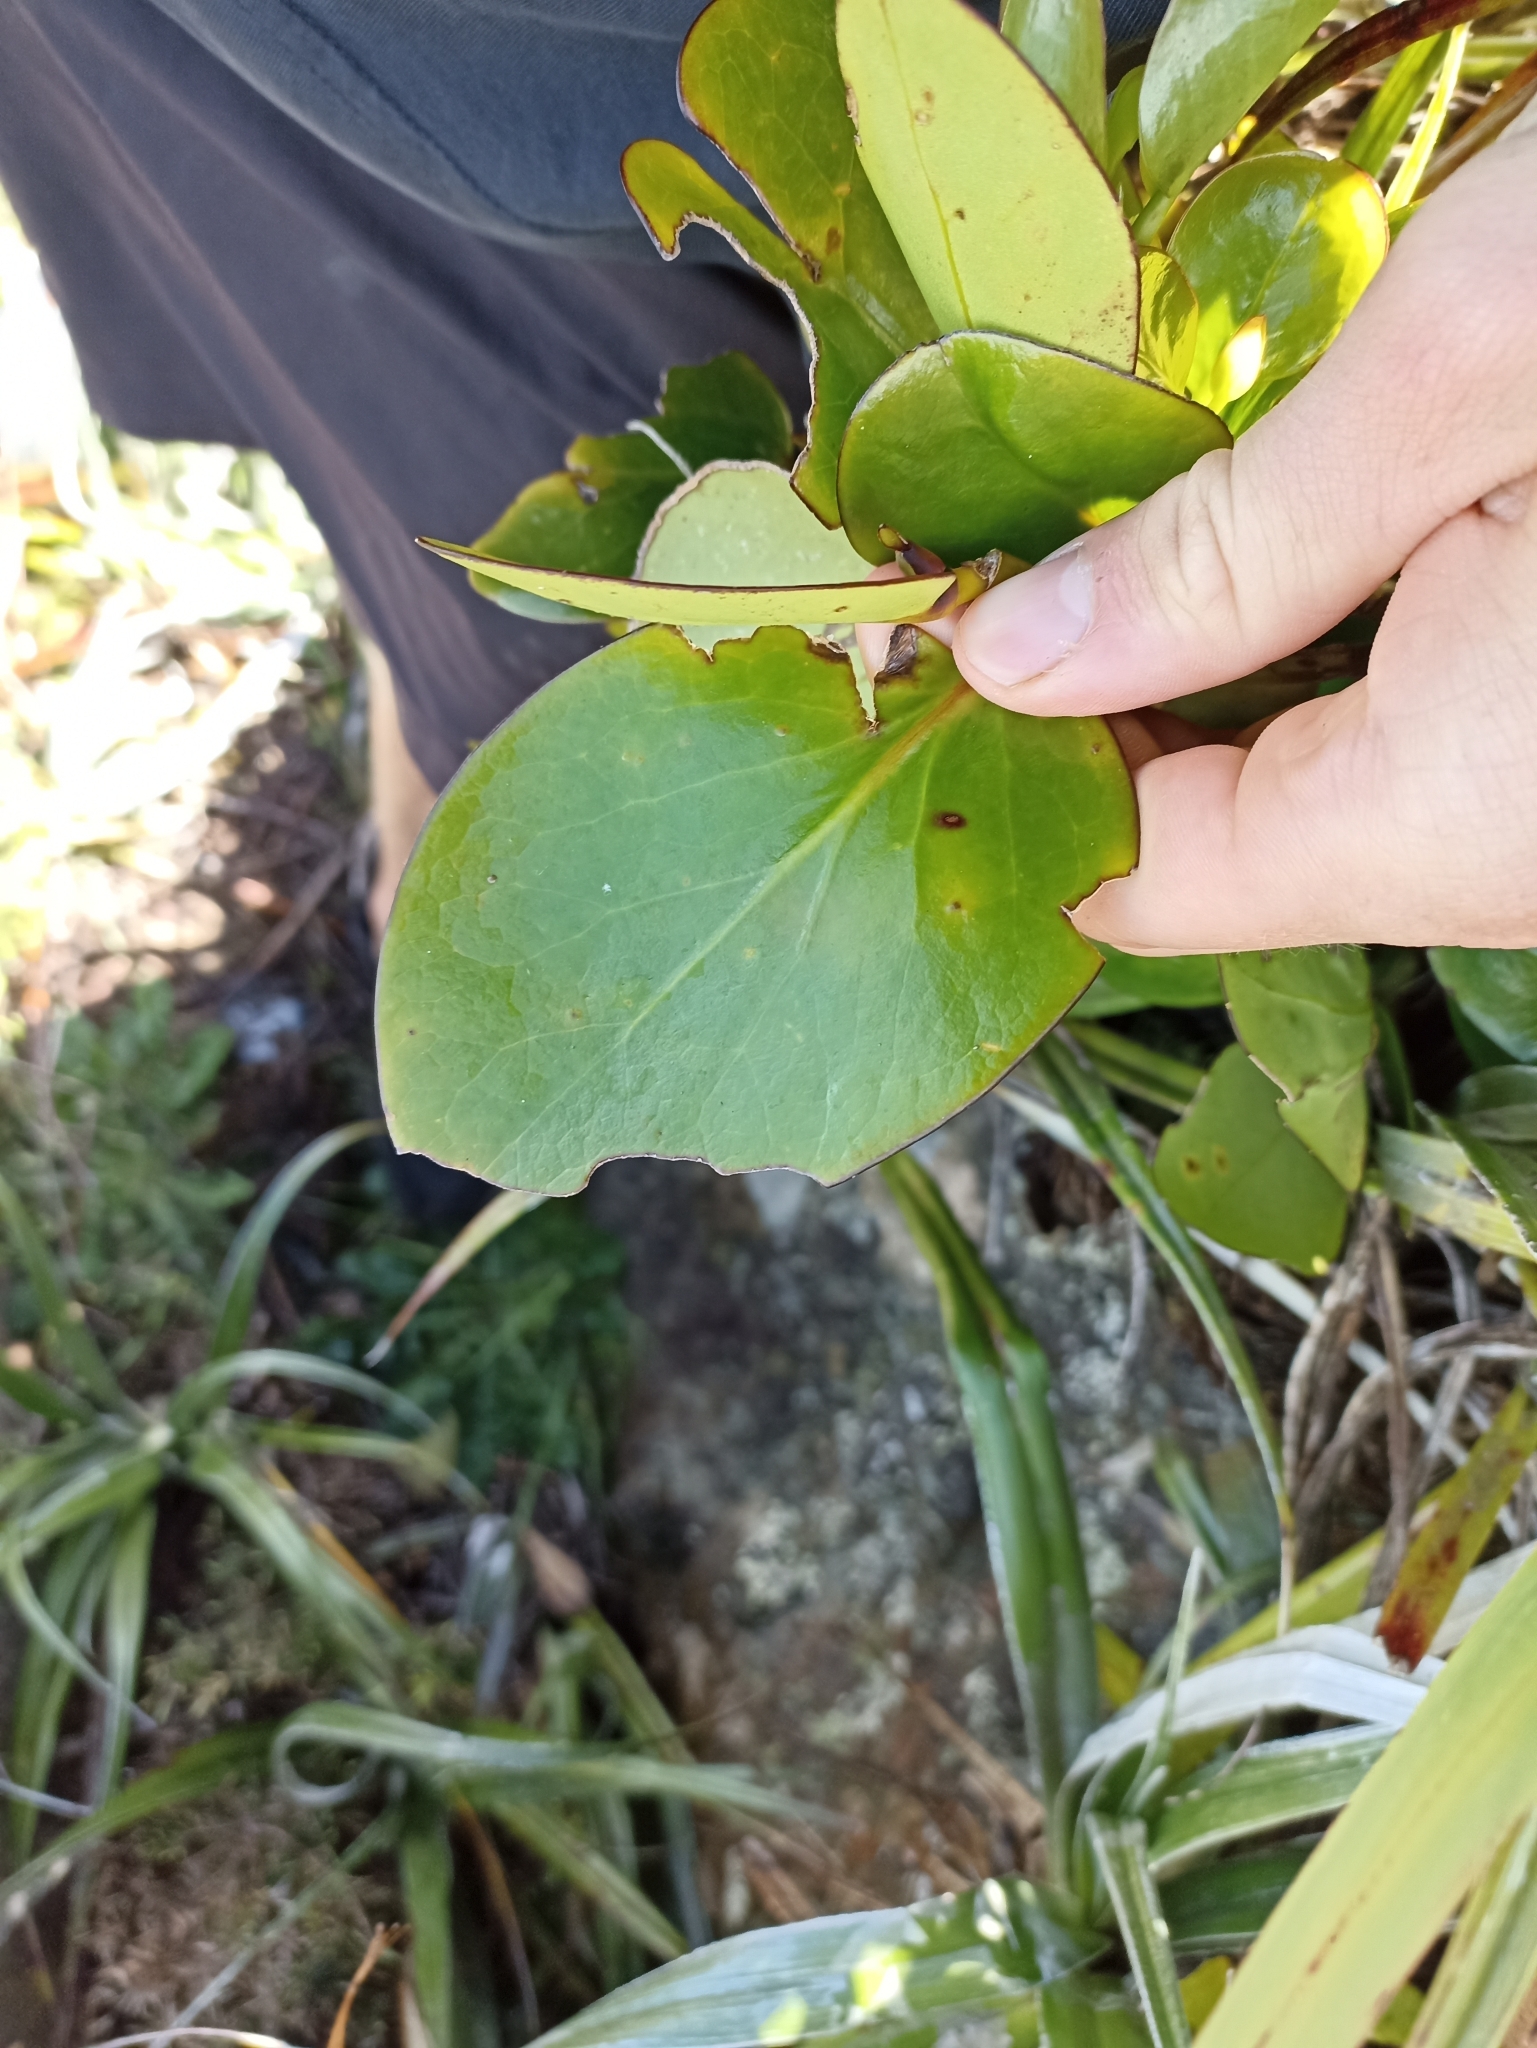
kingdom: Plantae
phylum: Tracheophyta
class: Magnoliopsida
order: Apiales
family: Griseliniaceae
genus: Griselinia
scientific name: Griselinia lucida
